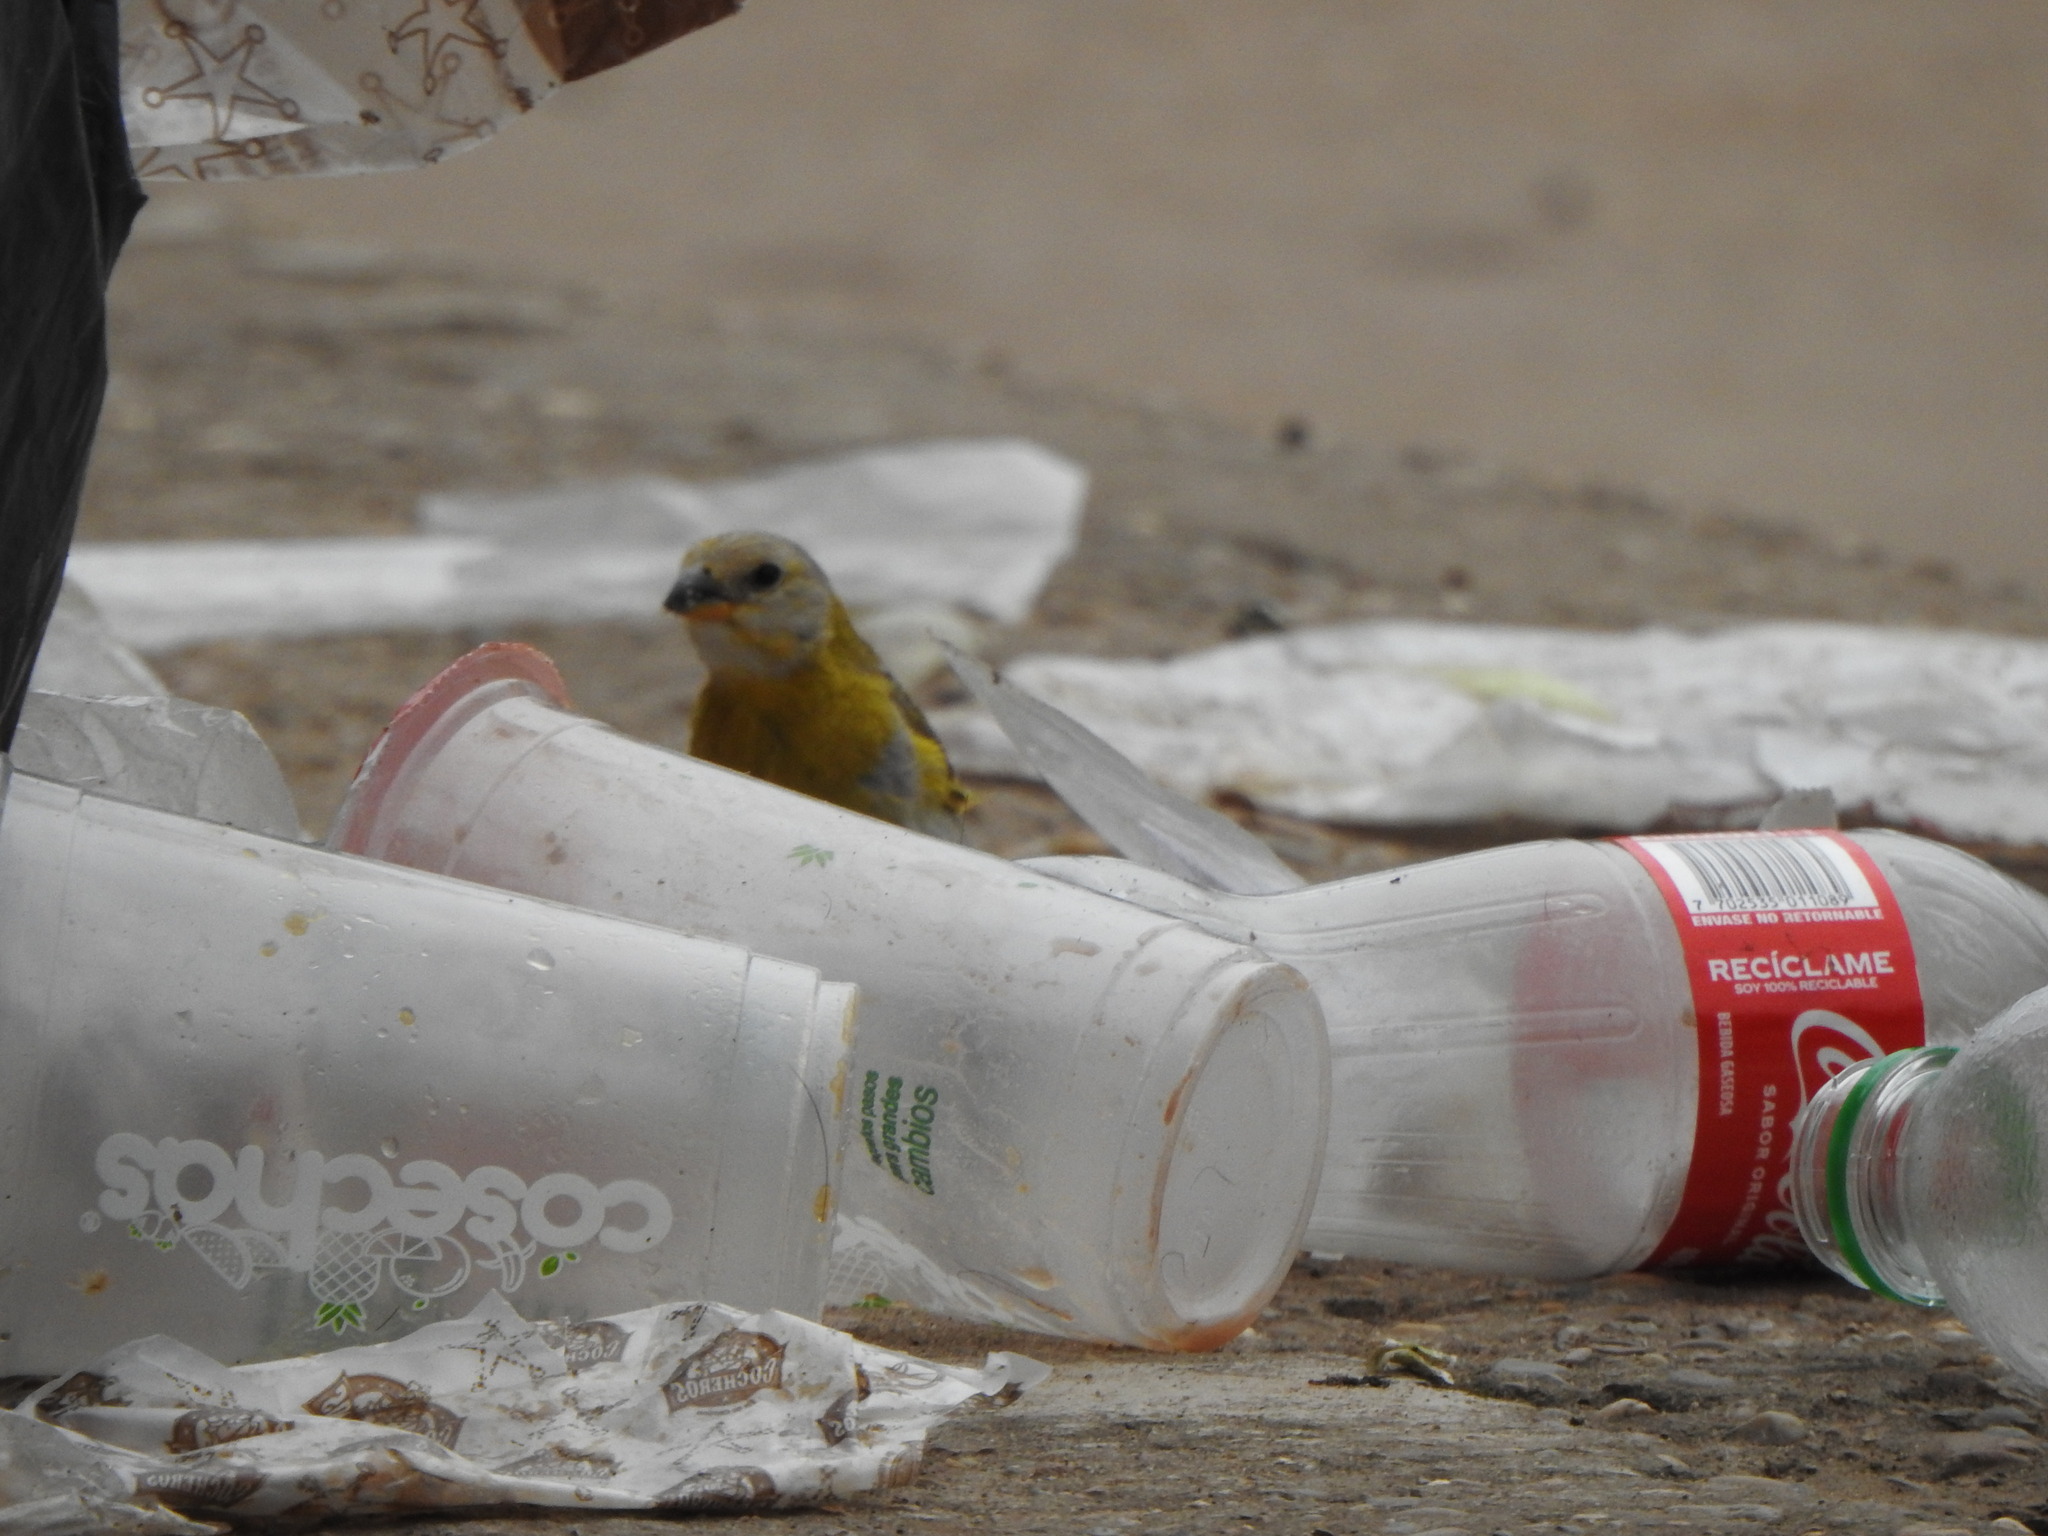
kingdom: Animalia
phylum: Chordata
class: Aves
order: Passeriformes
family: Thraupidae
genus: Sicalis
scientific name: Sicalis flaveola
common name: Saffron finch
